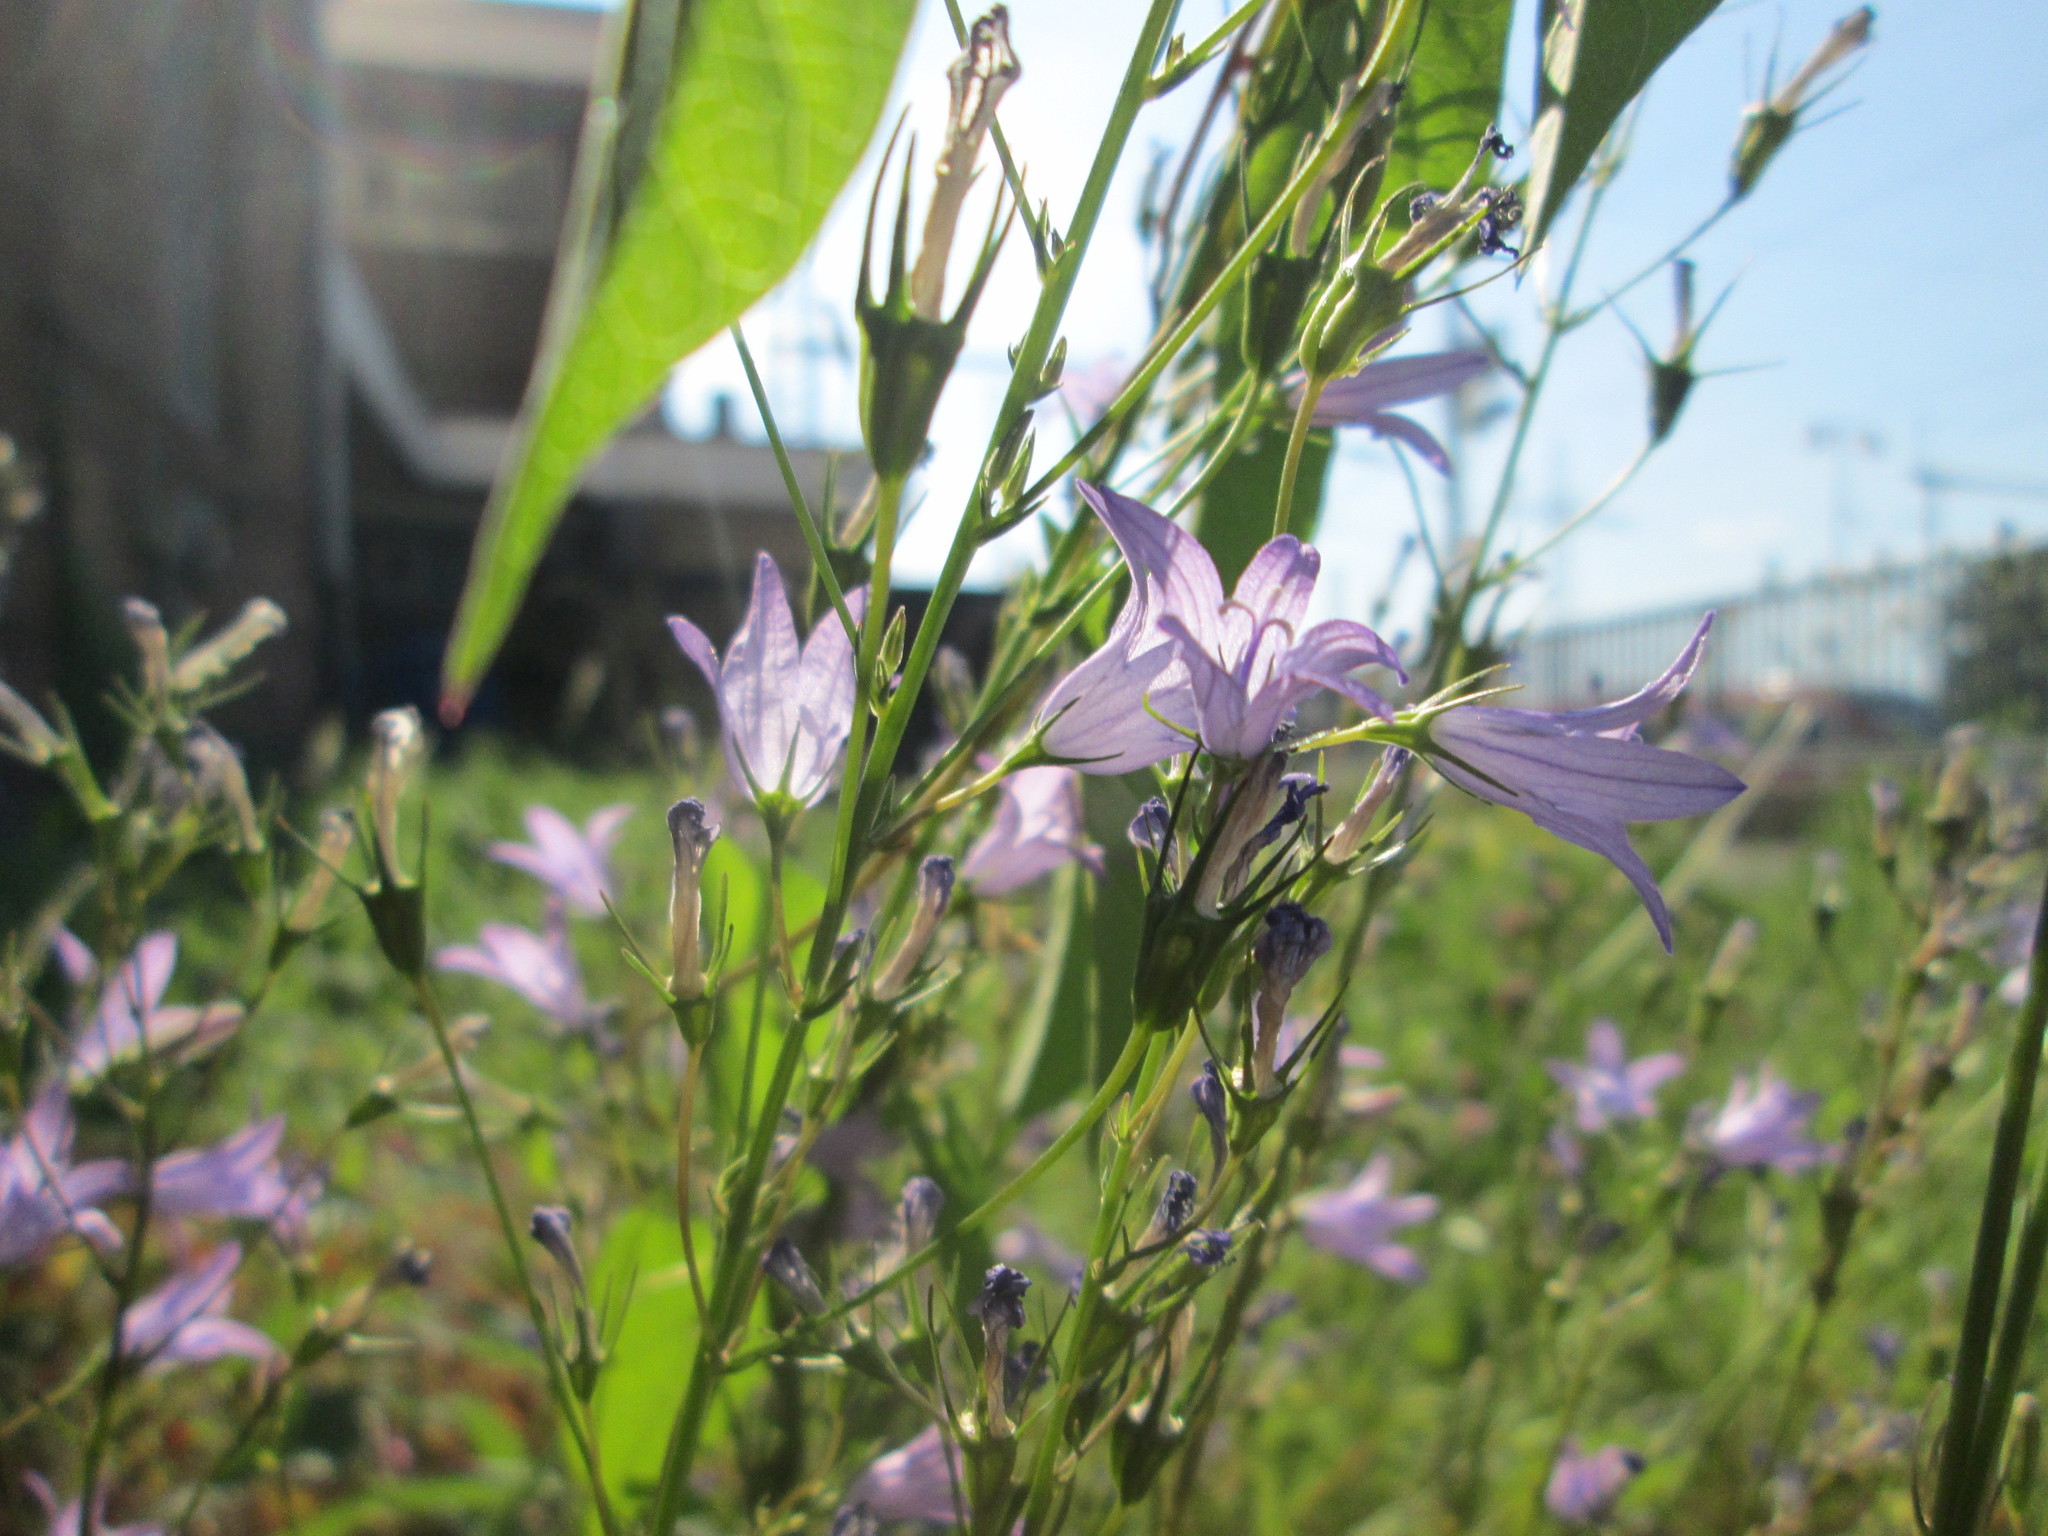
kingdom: Plantae
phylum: Tracheophyta
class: Magnoliopsida
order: Asterales
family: Campanulaceae
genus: Campanula
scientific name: Campanula rapunculus
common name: Rampion bellflower
